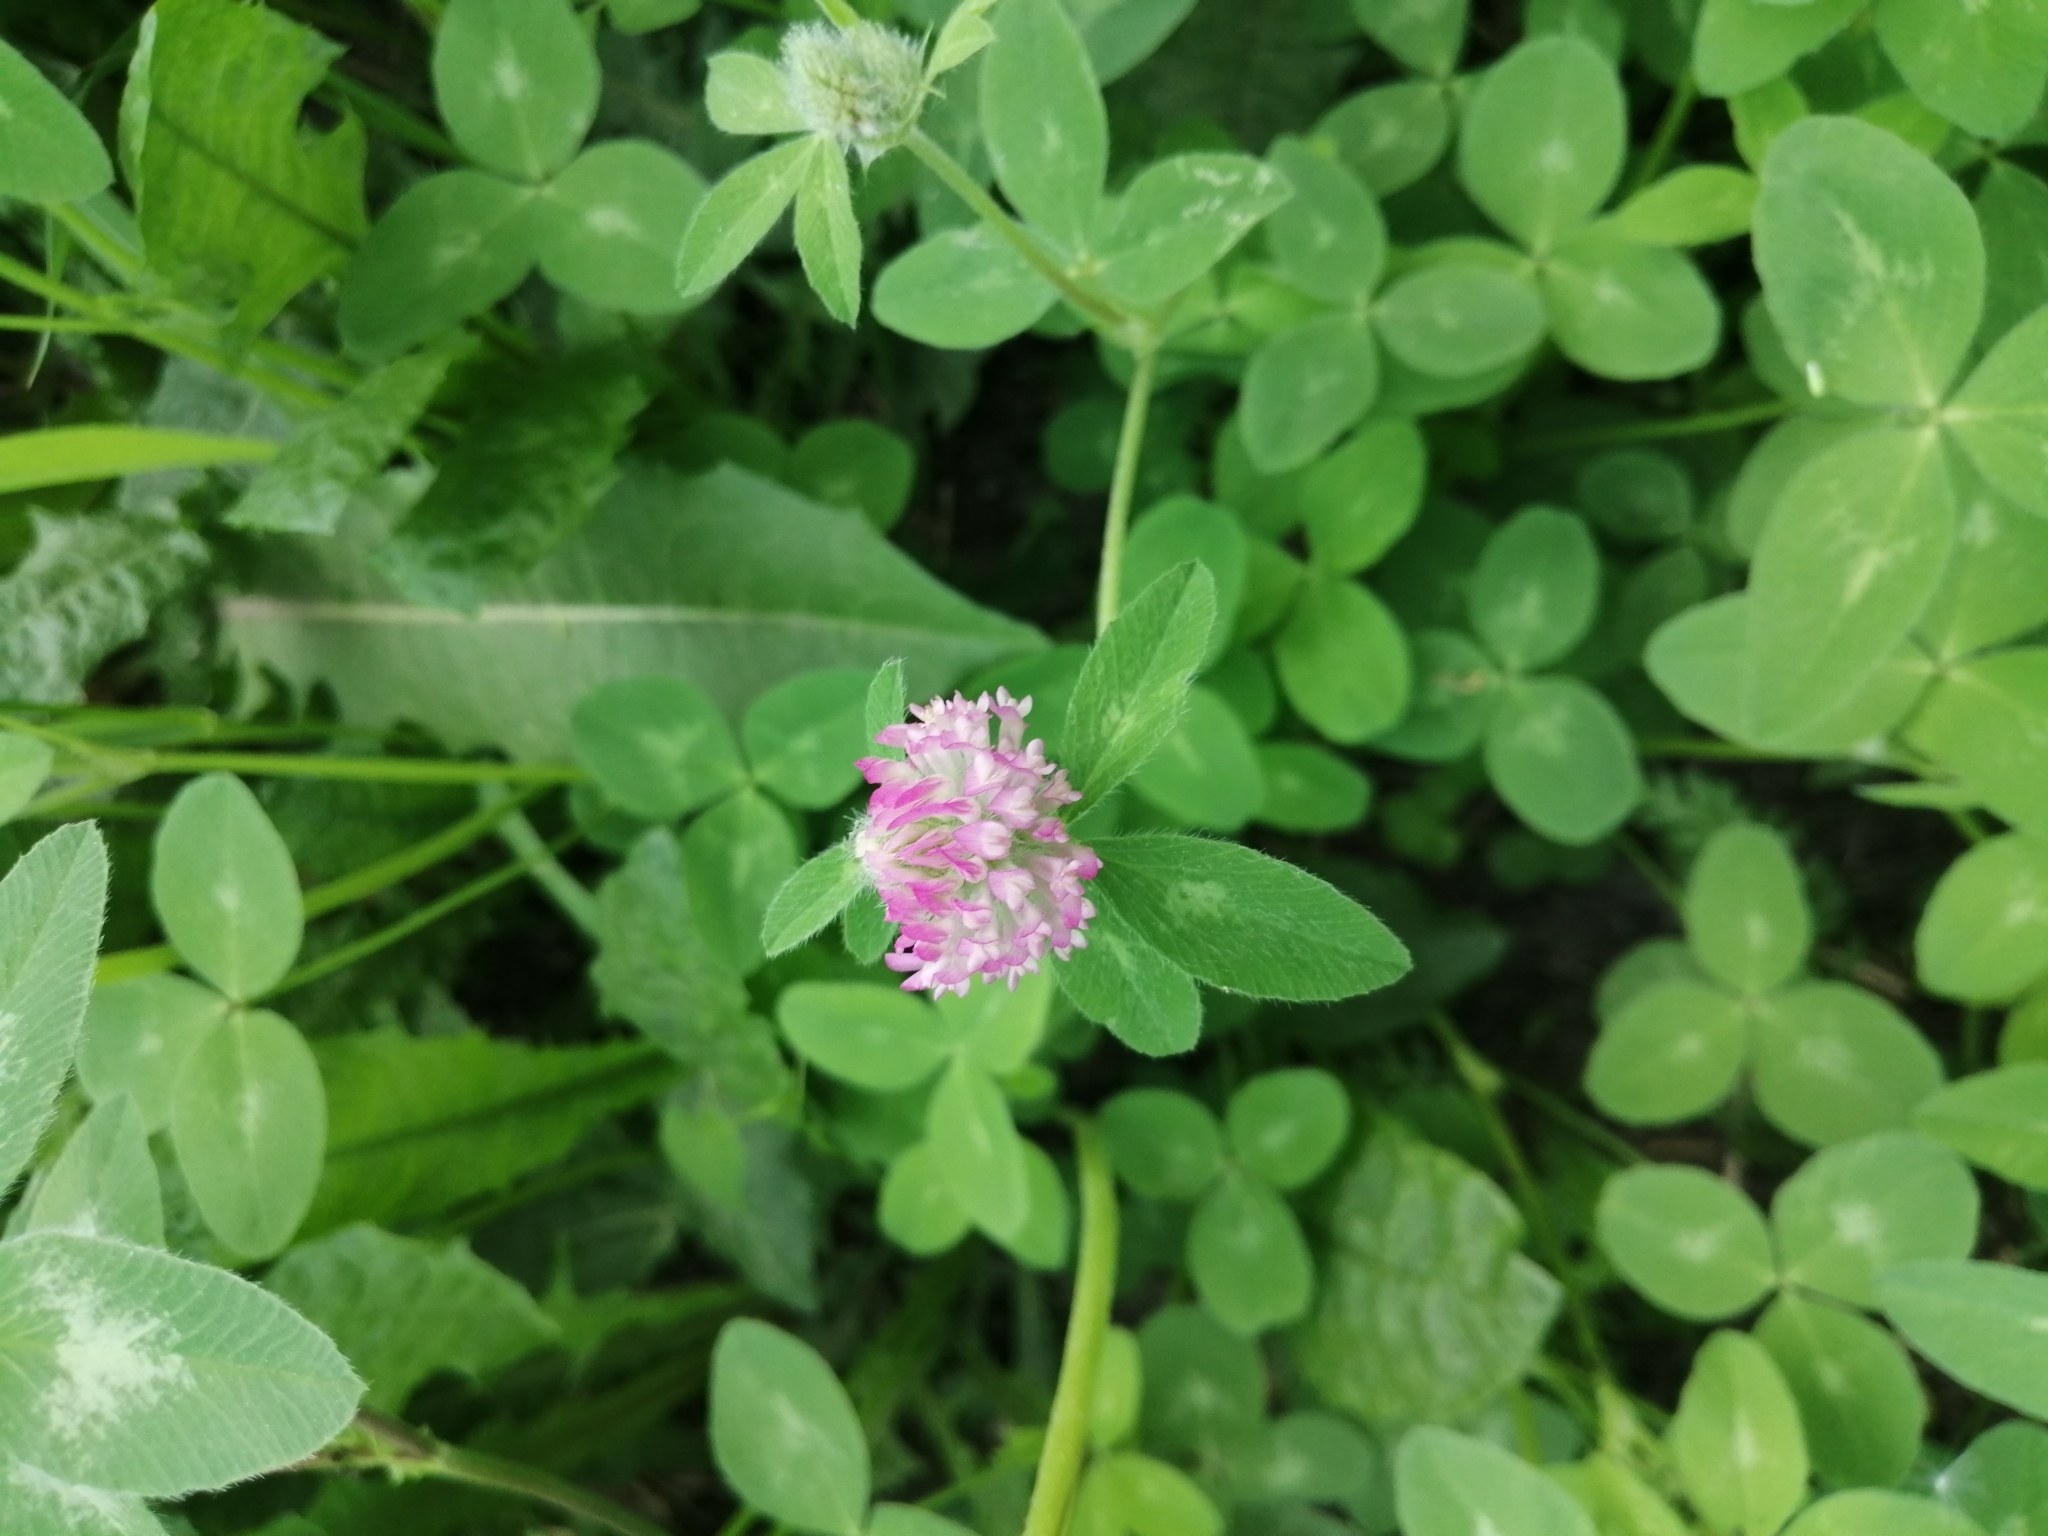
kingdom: Plantae
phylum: Tracheophyta
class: Magnoliopsida
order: Fabales
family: Fabaceae
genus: Trifolium
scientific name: Trifolium pratense
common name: Red clover
